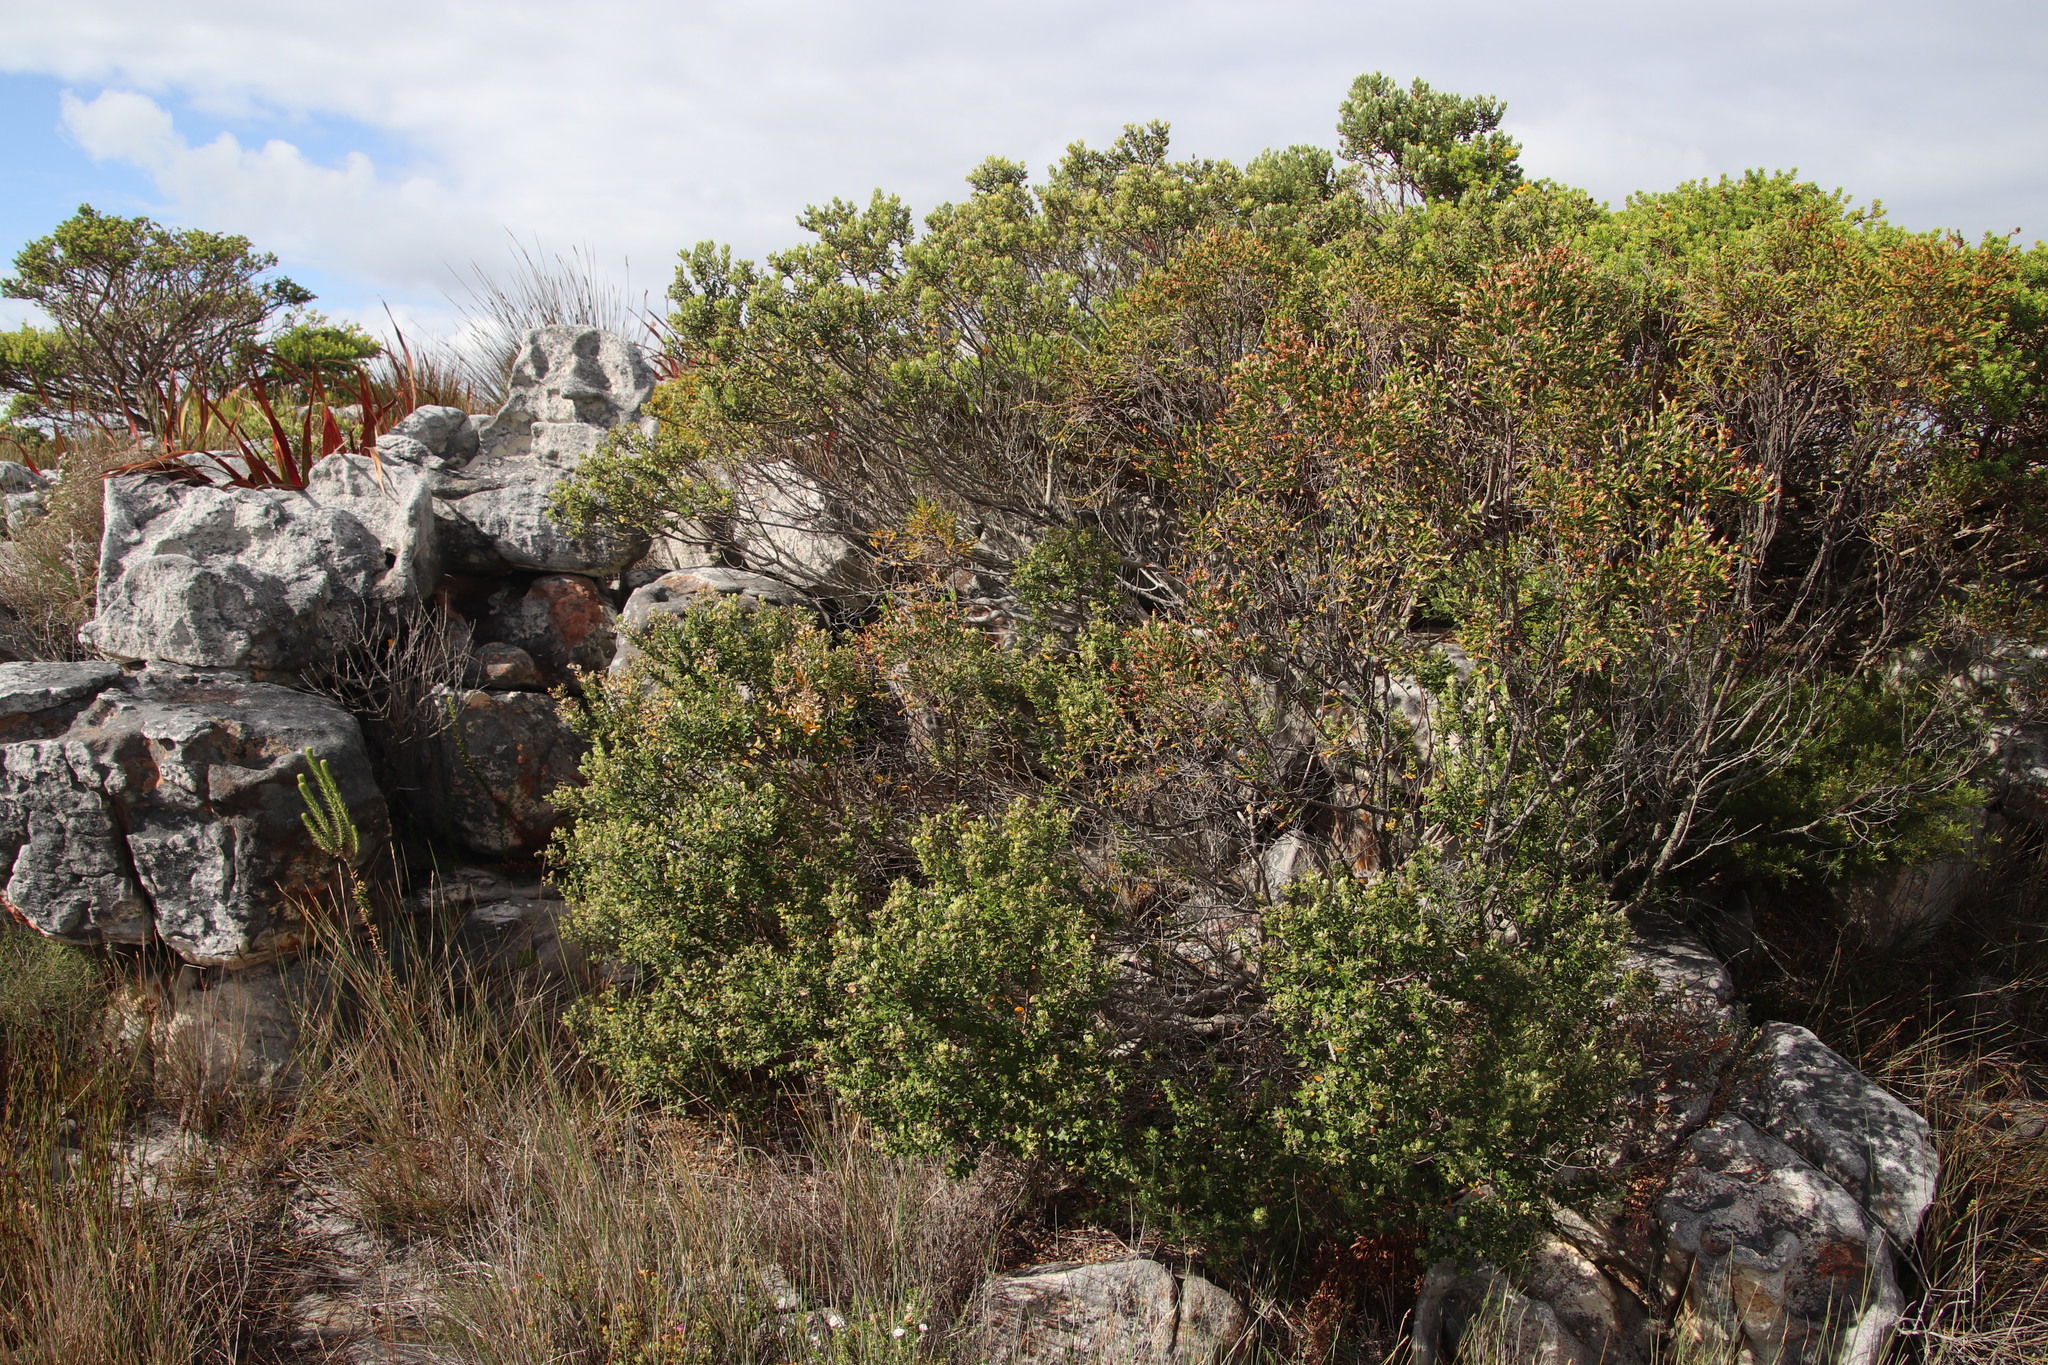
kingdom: Plantae
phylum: Tracheophyta
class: Magnoliopsida
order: Rosales
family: Rhamnaceae
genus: Phylica
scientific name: Phylica buxifolia
